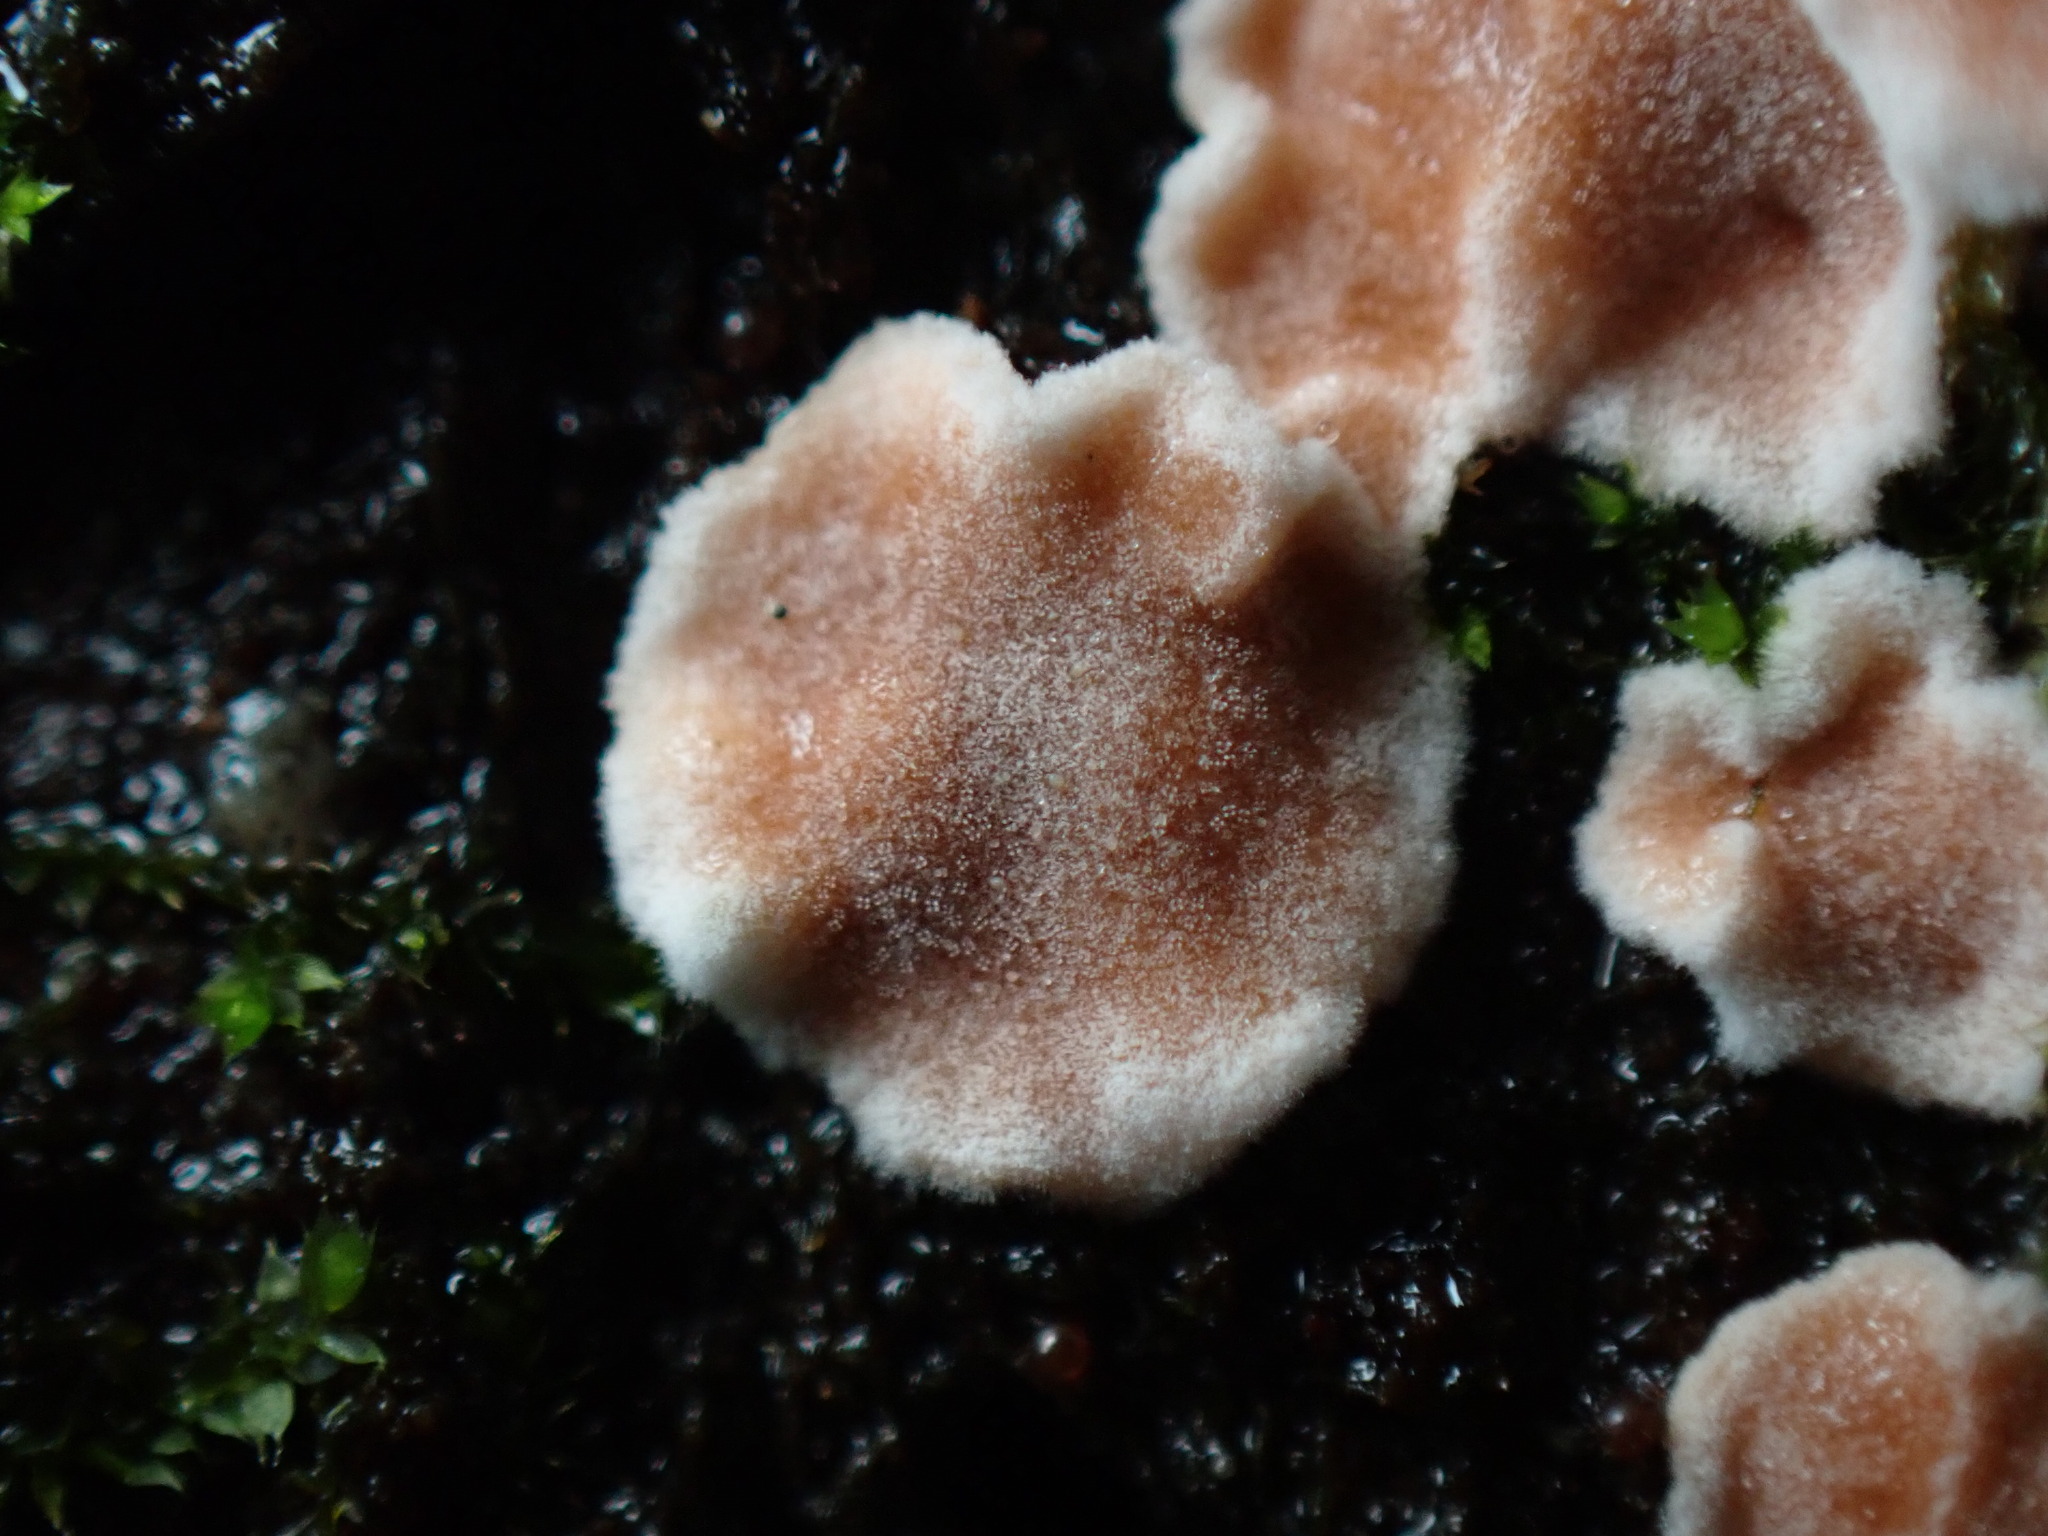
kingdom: Fungi
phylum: Basidiomycota
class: Agaricomycetes
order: Russulales
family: Stereaceae
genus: Gloeosoma
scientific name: Gloeosoma mirabile
